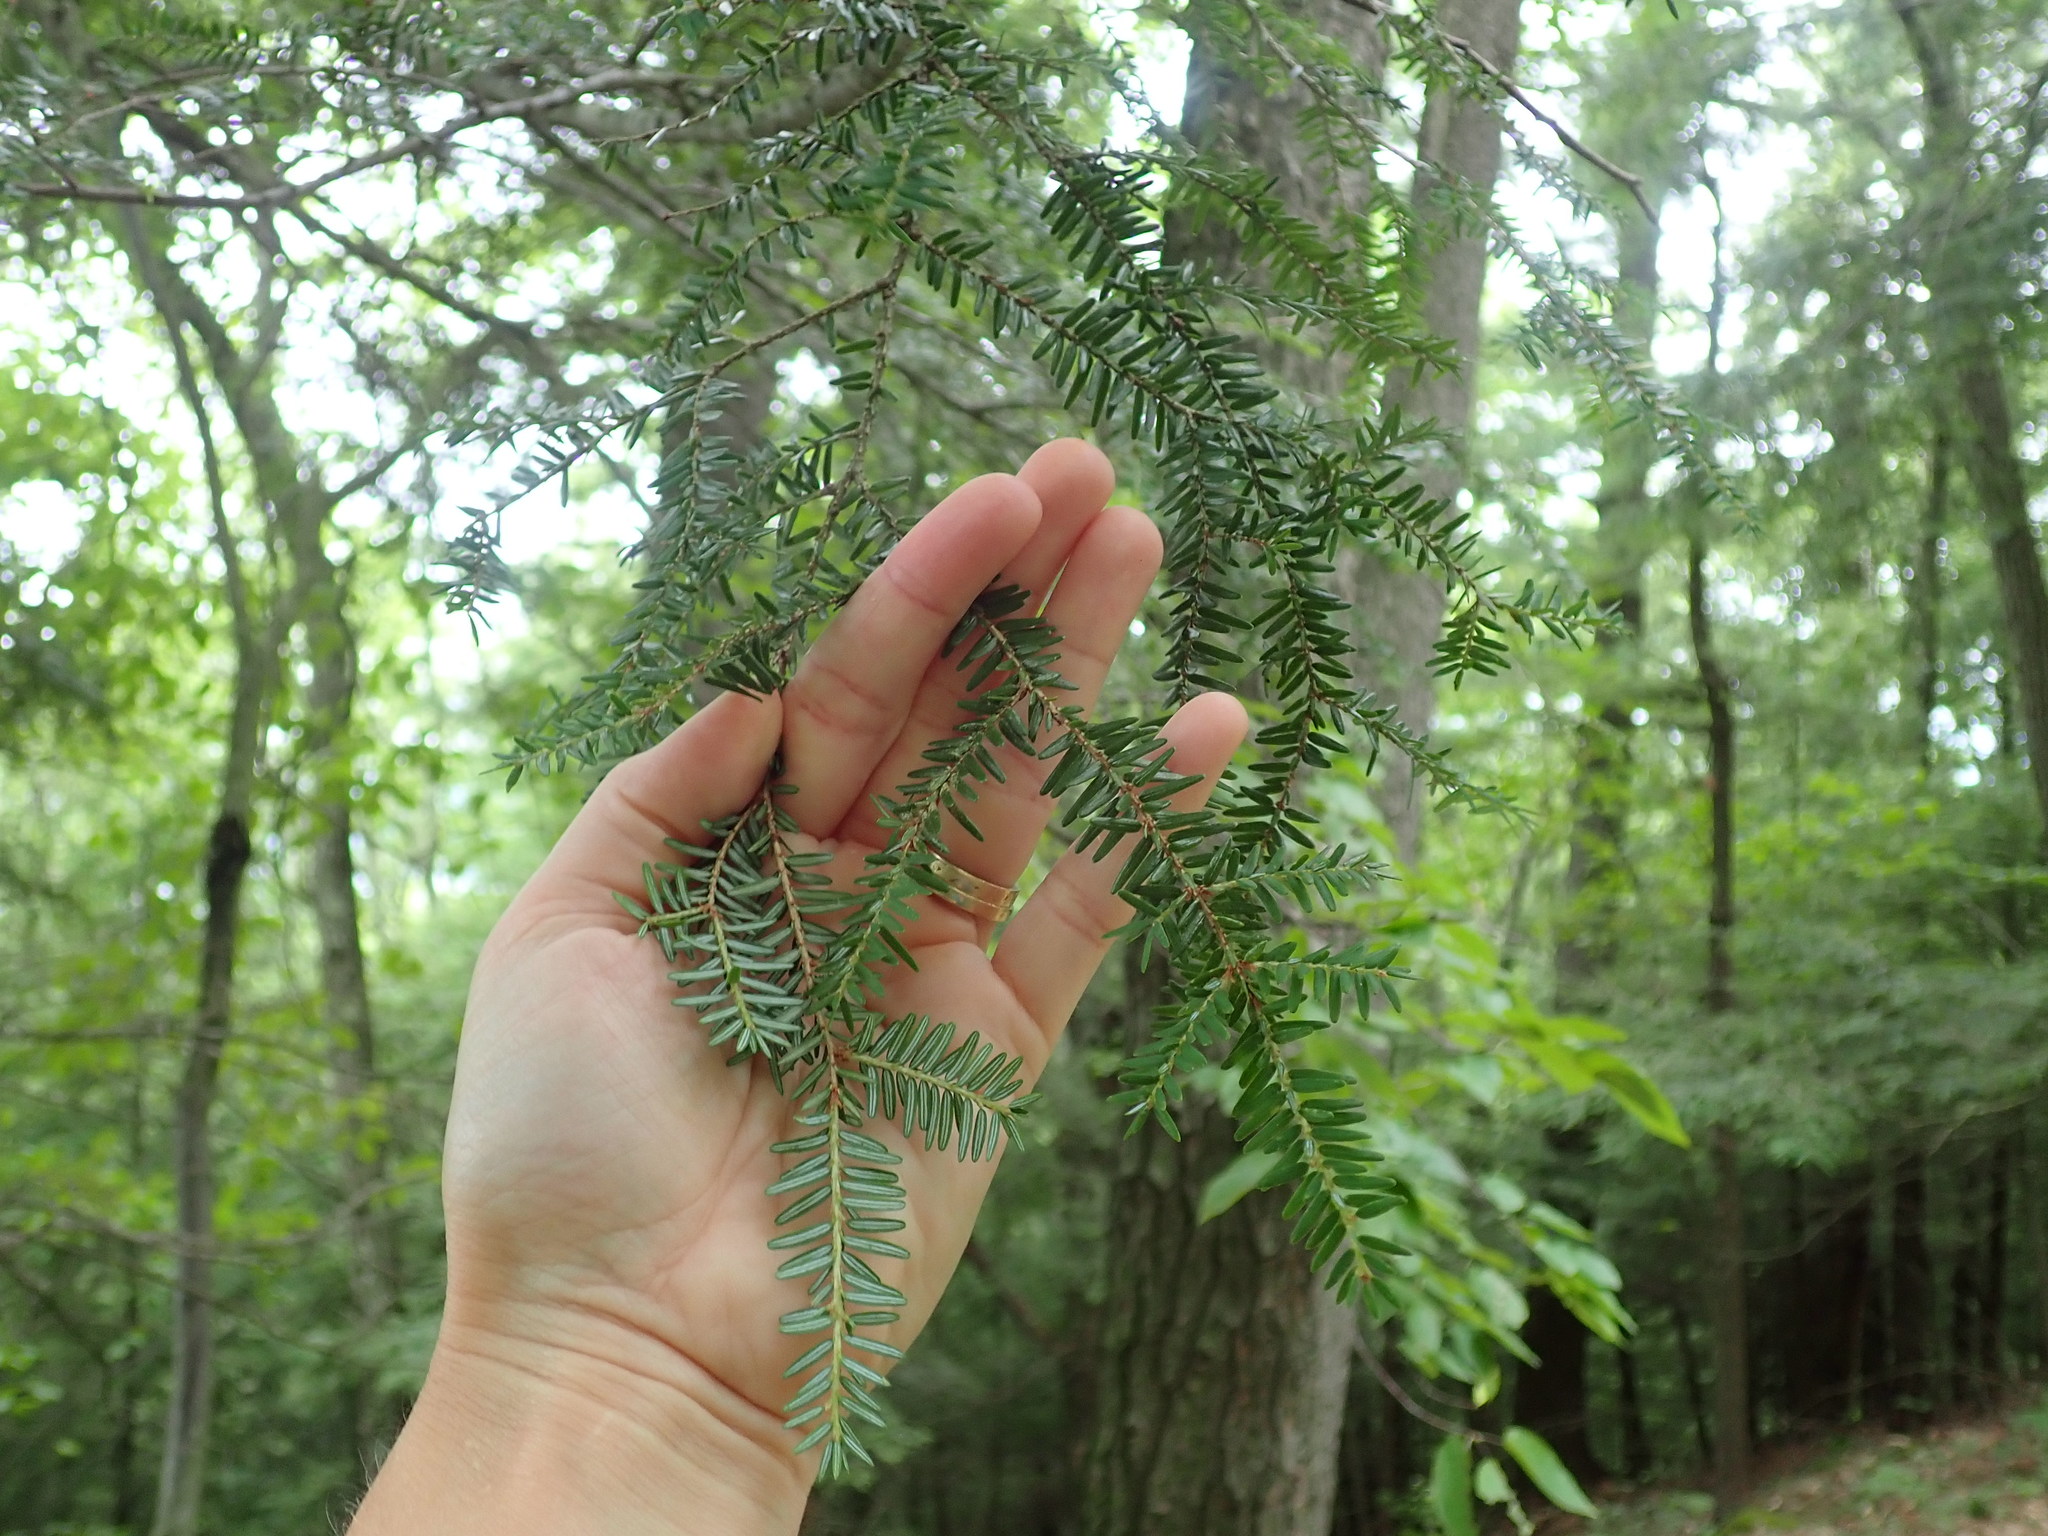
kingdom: Plantae
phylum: Tracheophyta
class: Pinopsida
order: Pinales
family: Pinaceae
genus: Tsuga
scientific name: Tsuga canadensis
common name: Eastern hemlock
